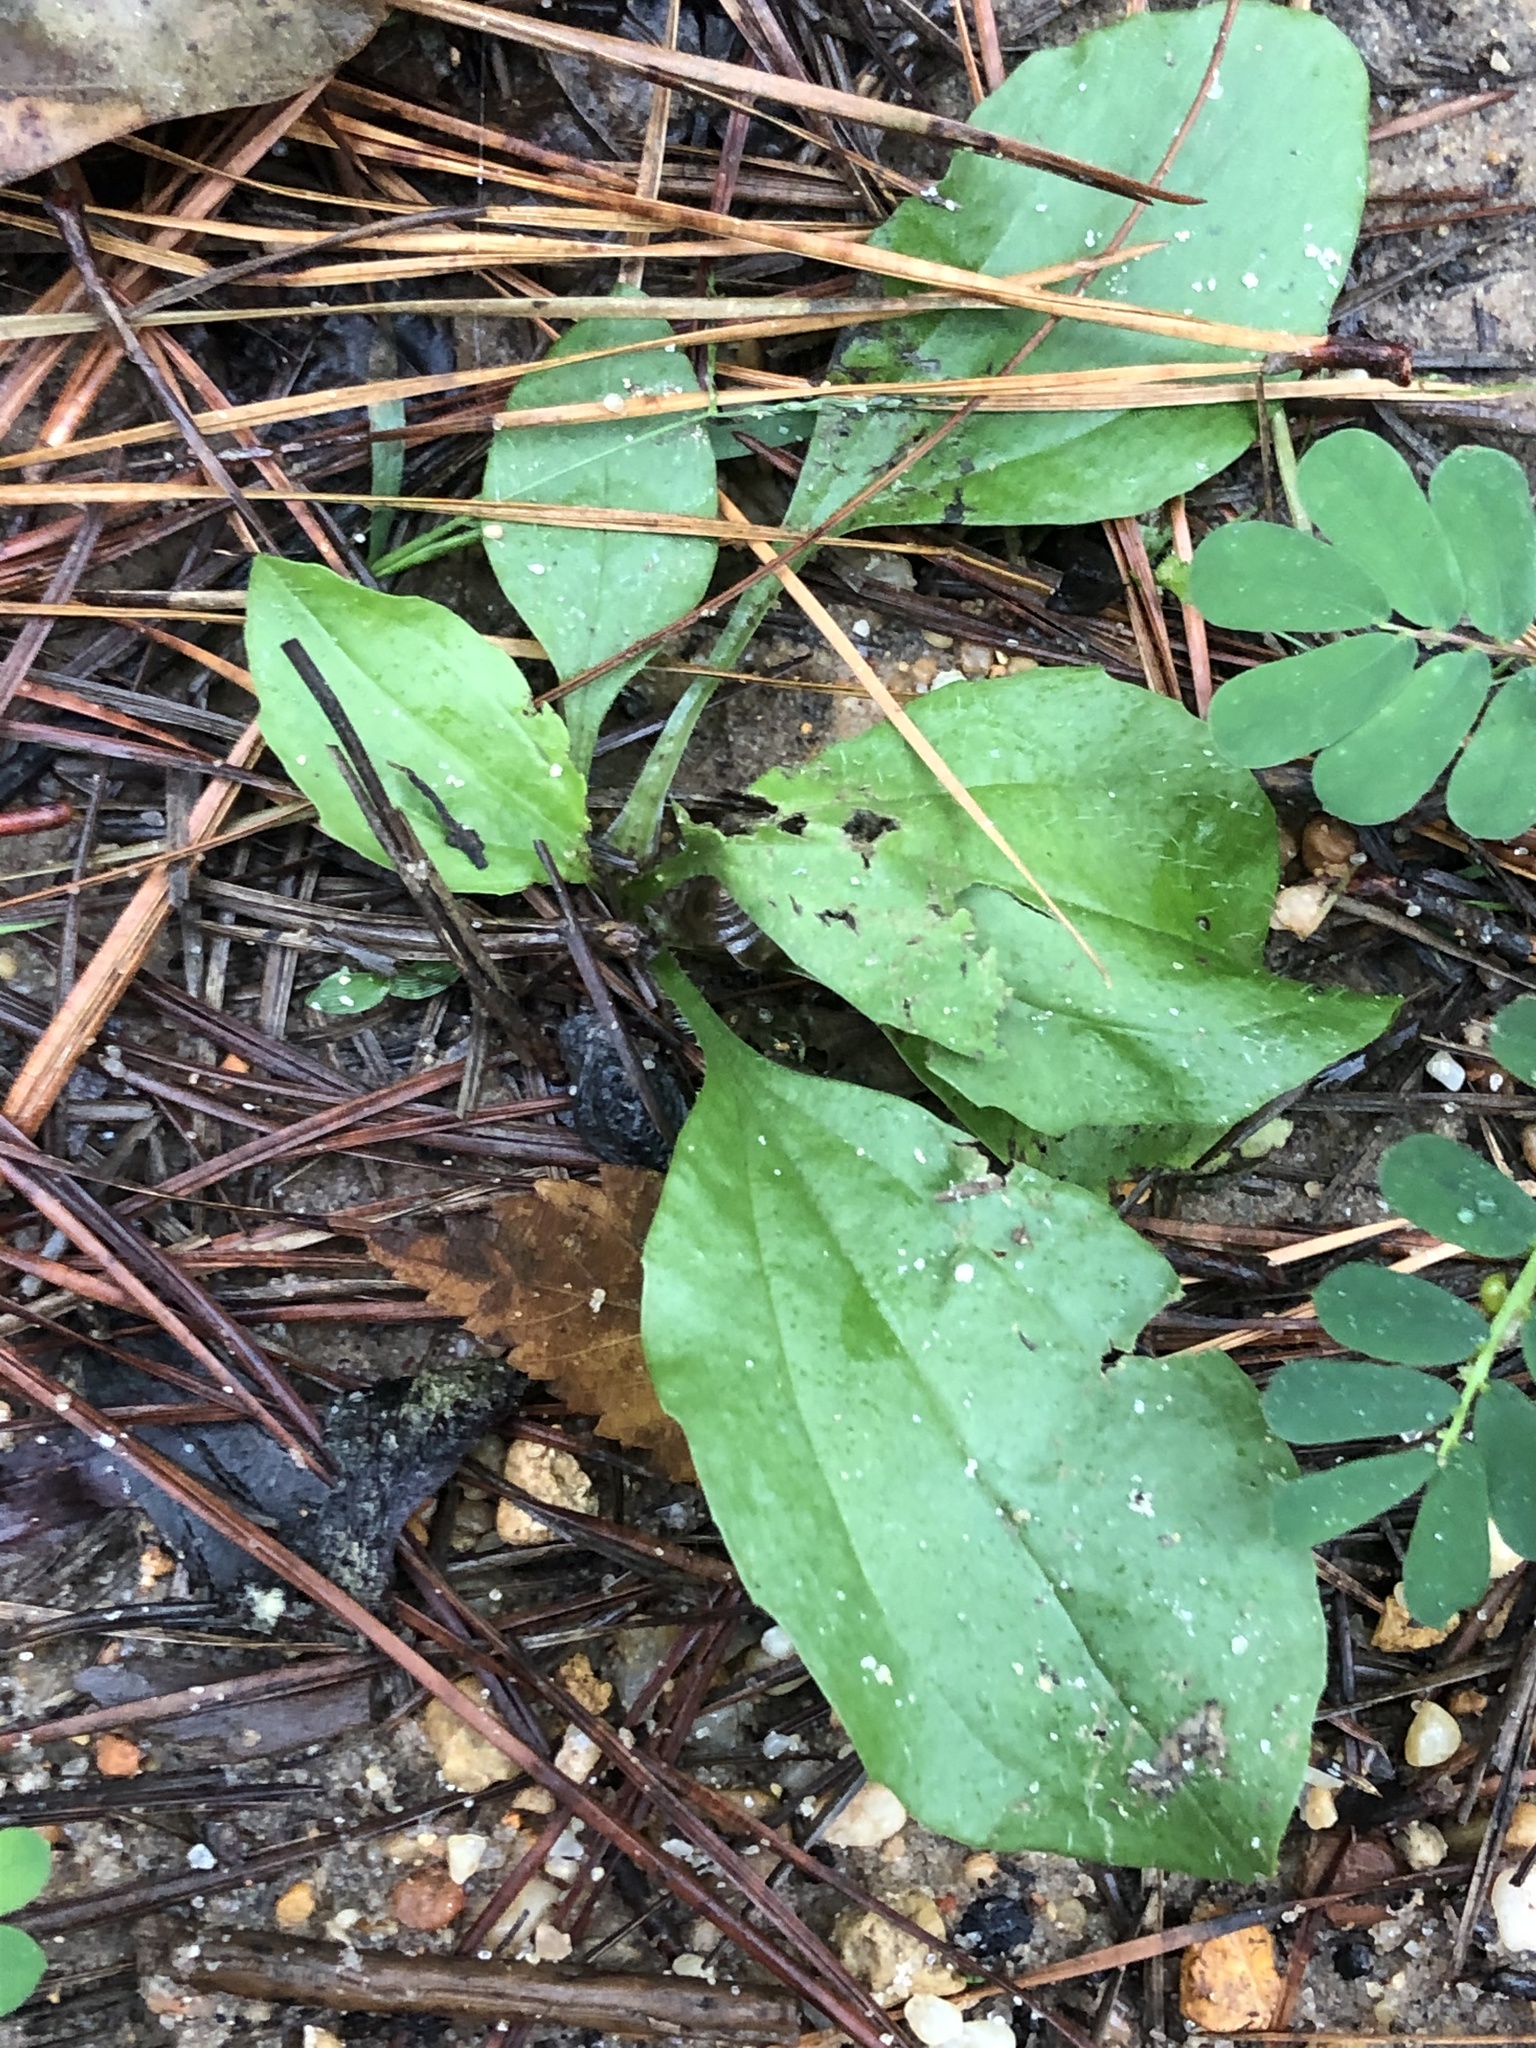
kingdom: Plantae
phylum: Tracheophyta
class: Magnoliopsida
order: Lamiales
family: Plantaginaceae
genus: Plantago
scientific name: Plantago major
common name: Common plantain
